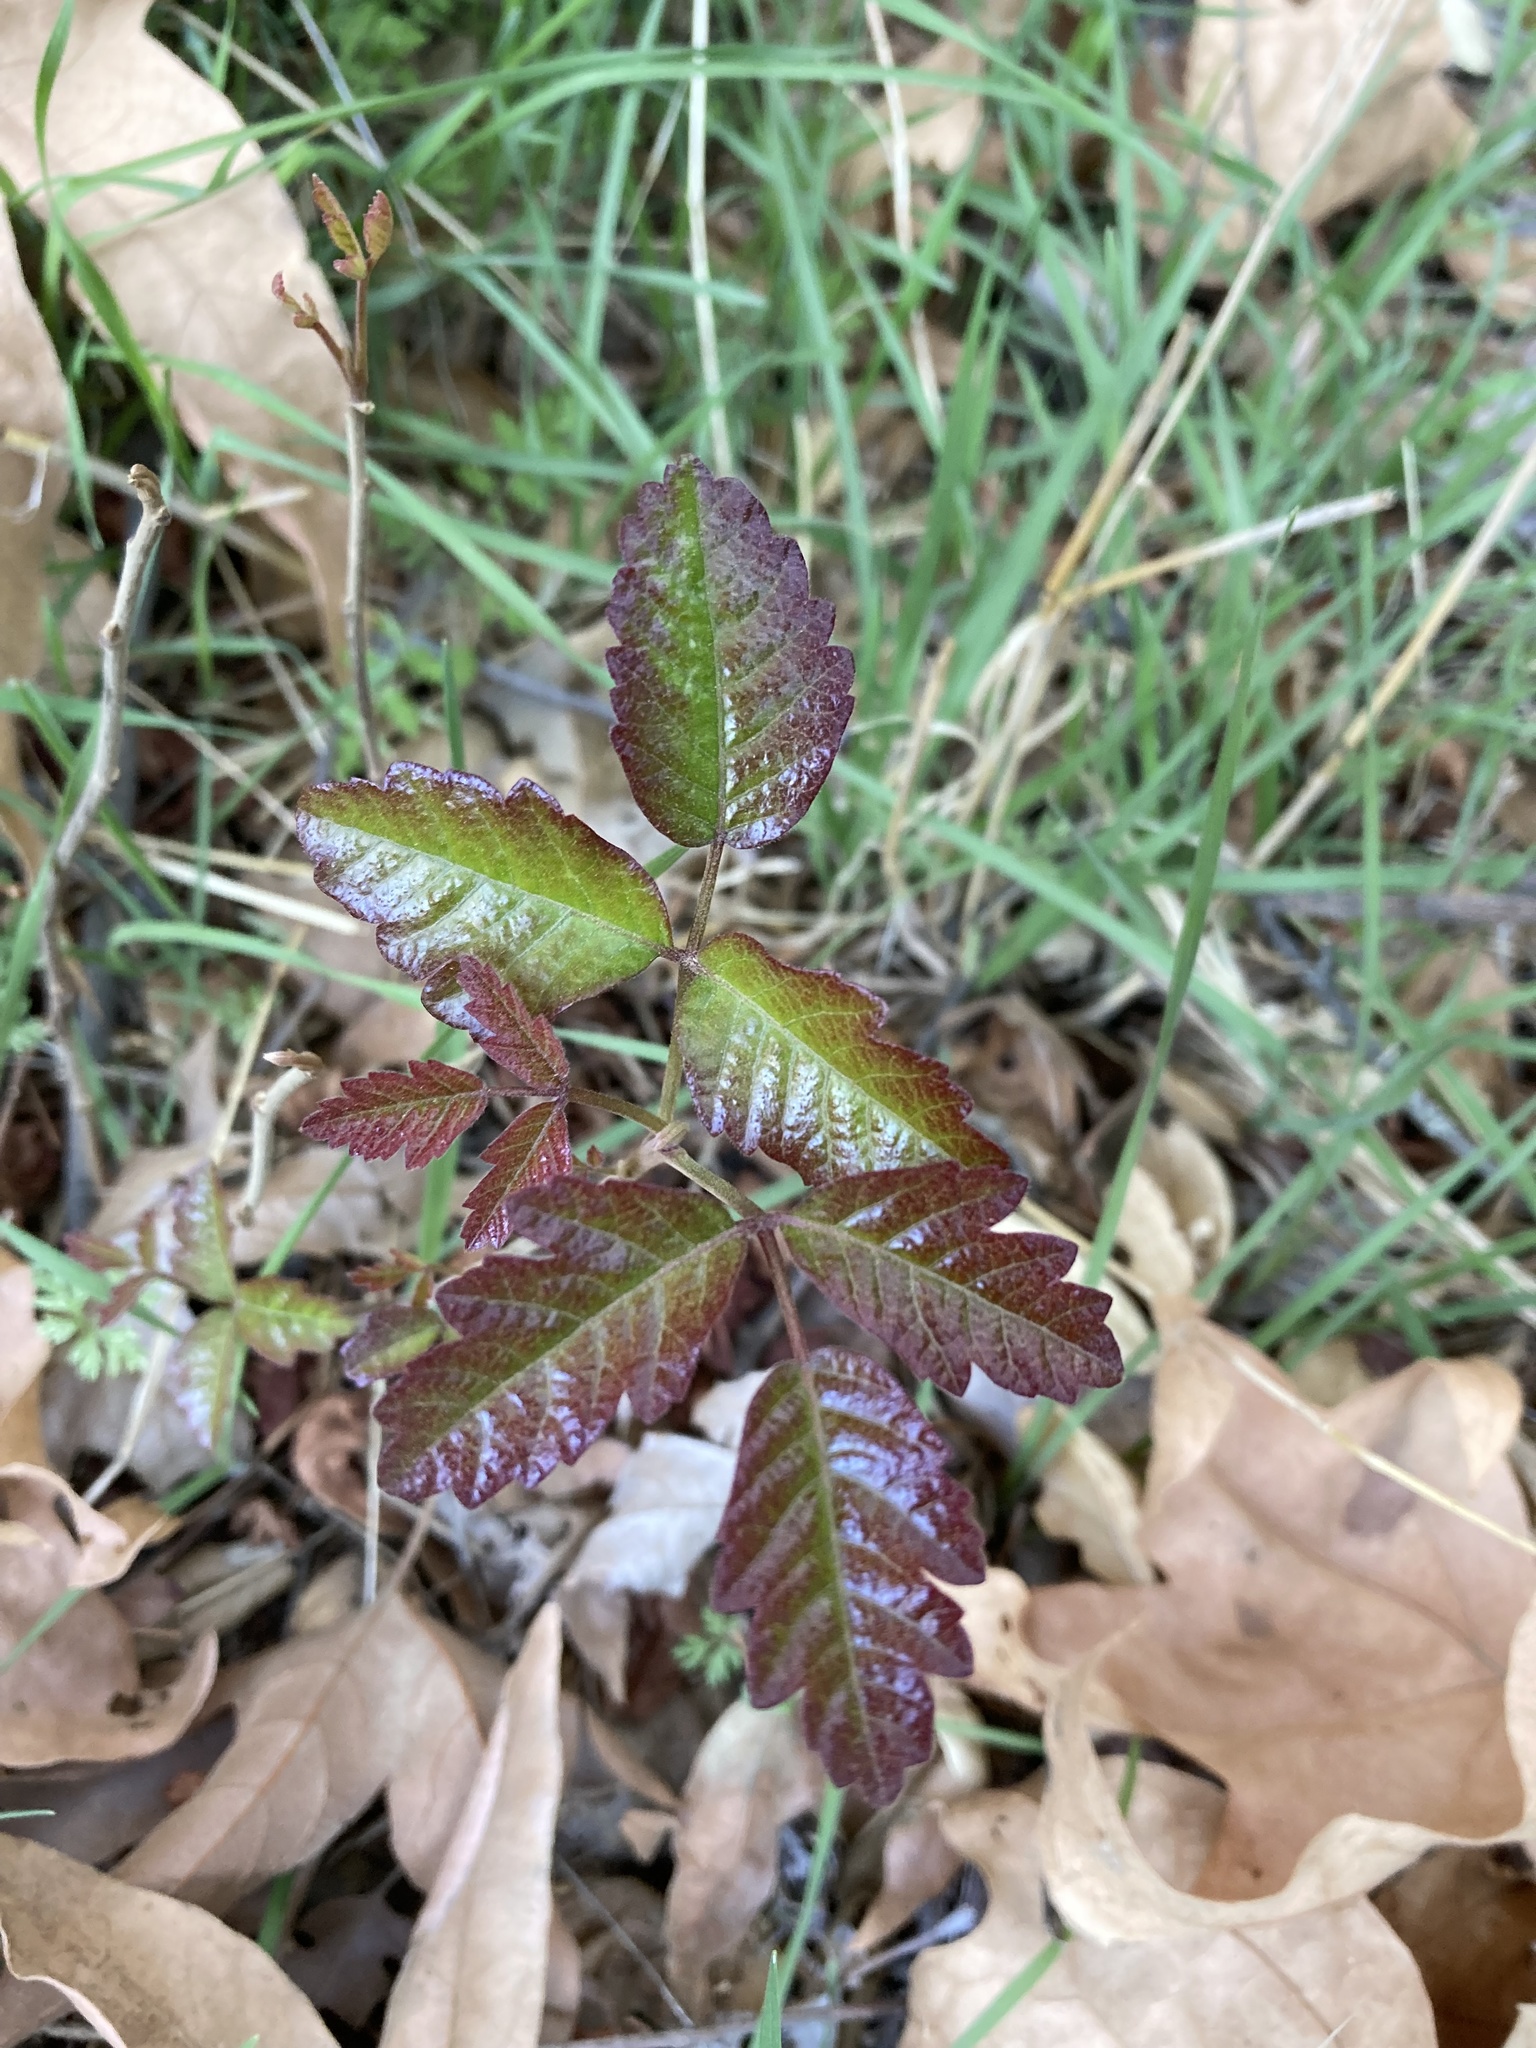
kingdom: Plantae
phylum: Tracheophyta
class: Magnoliopsida
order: Sapindales
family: Anacardiaceae
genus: Toxicodendron
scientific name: Toxicodendron diversilobum
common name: Pacific poison-oak
